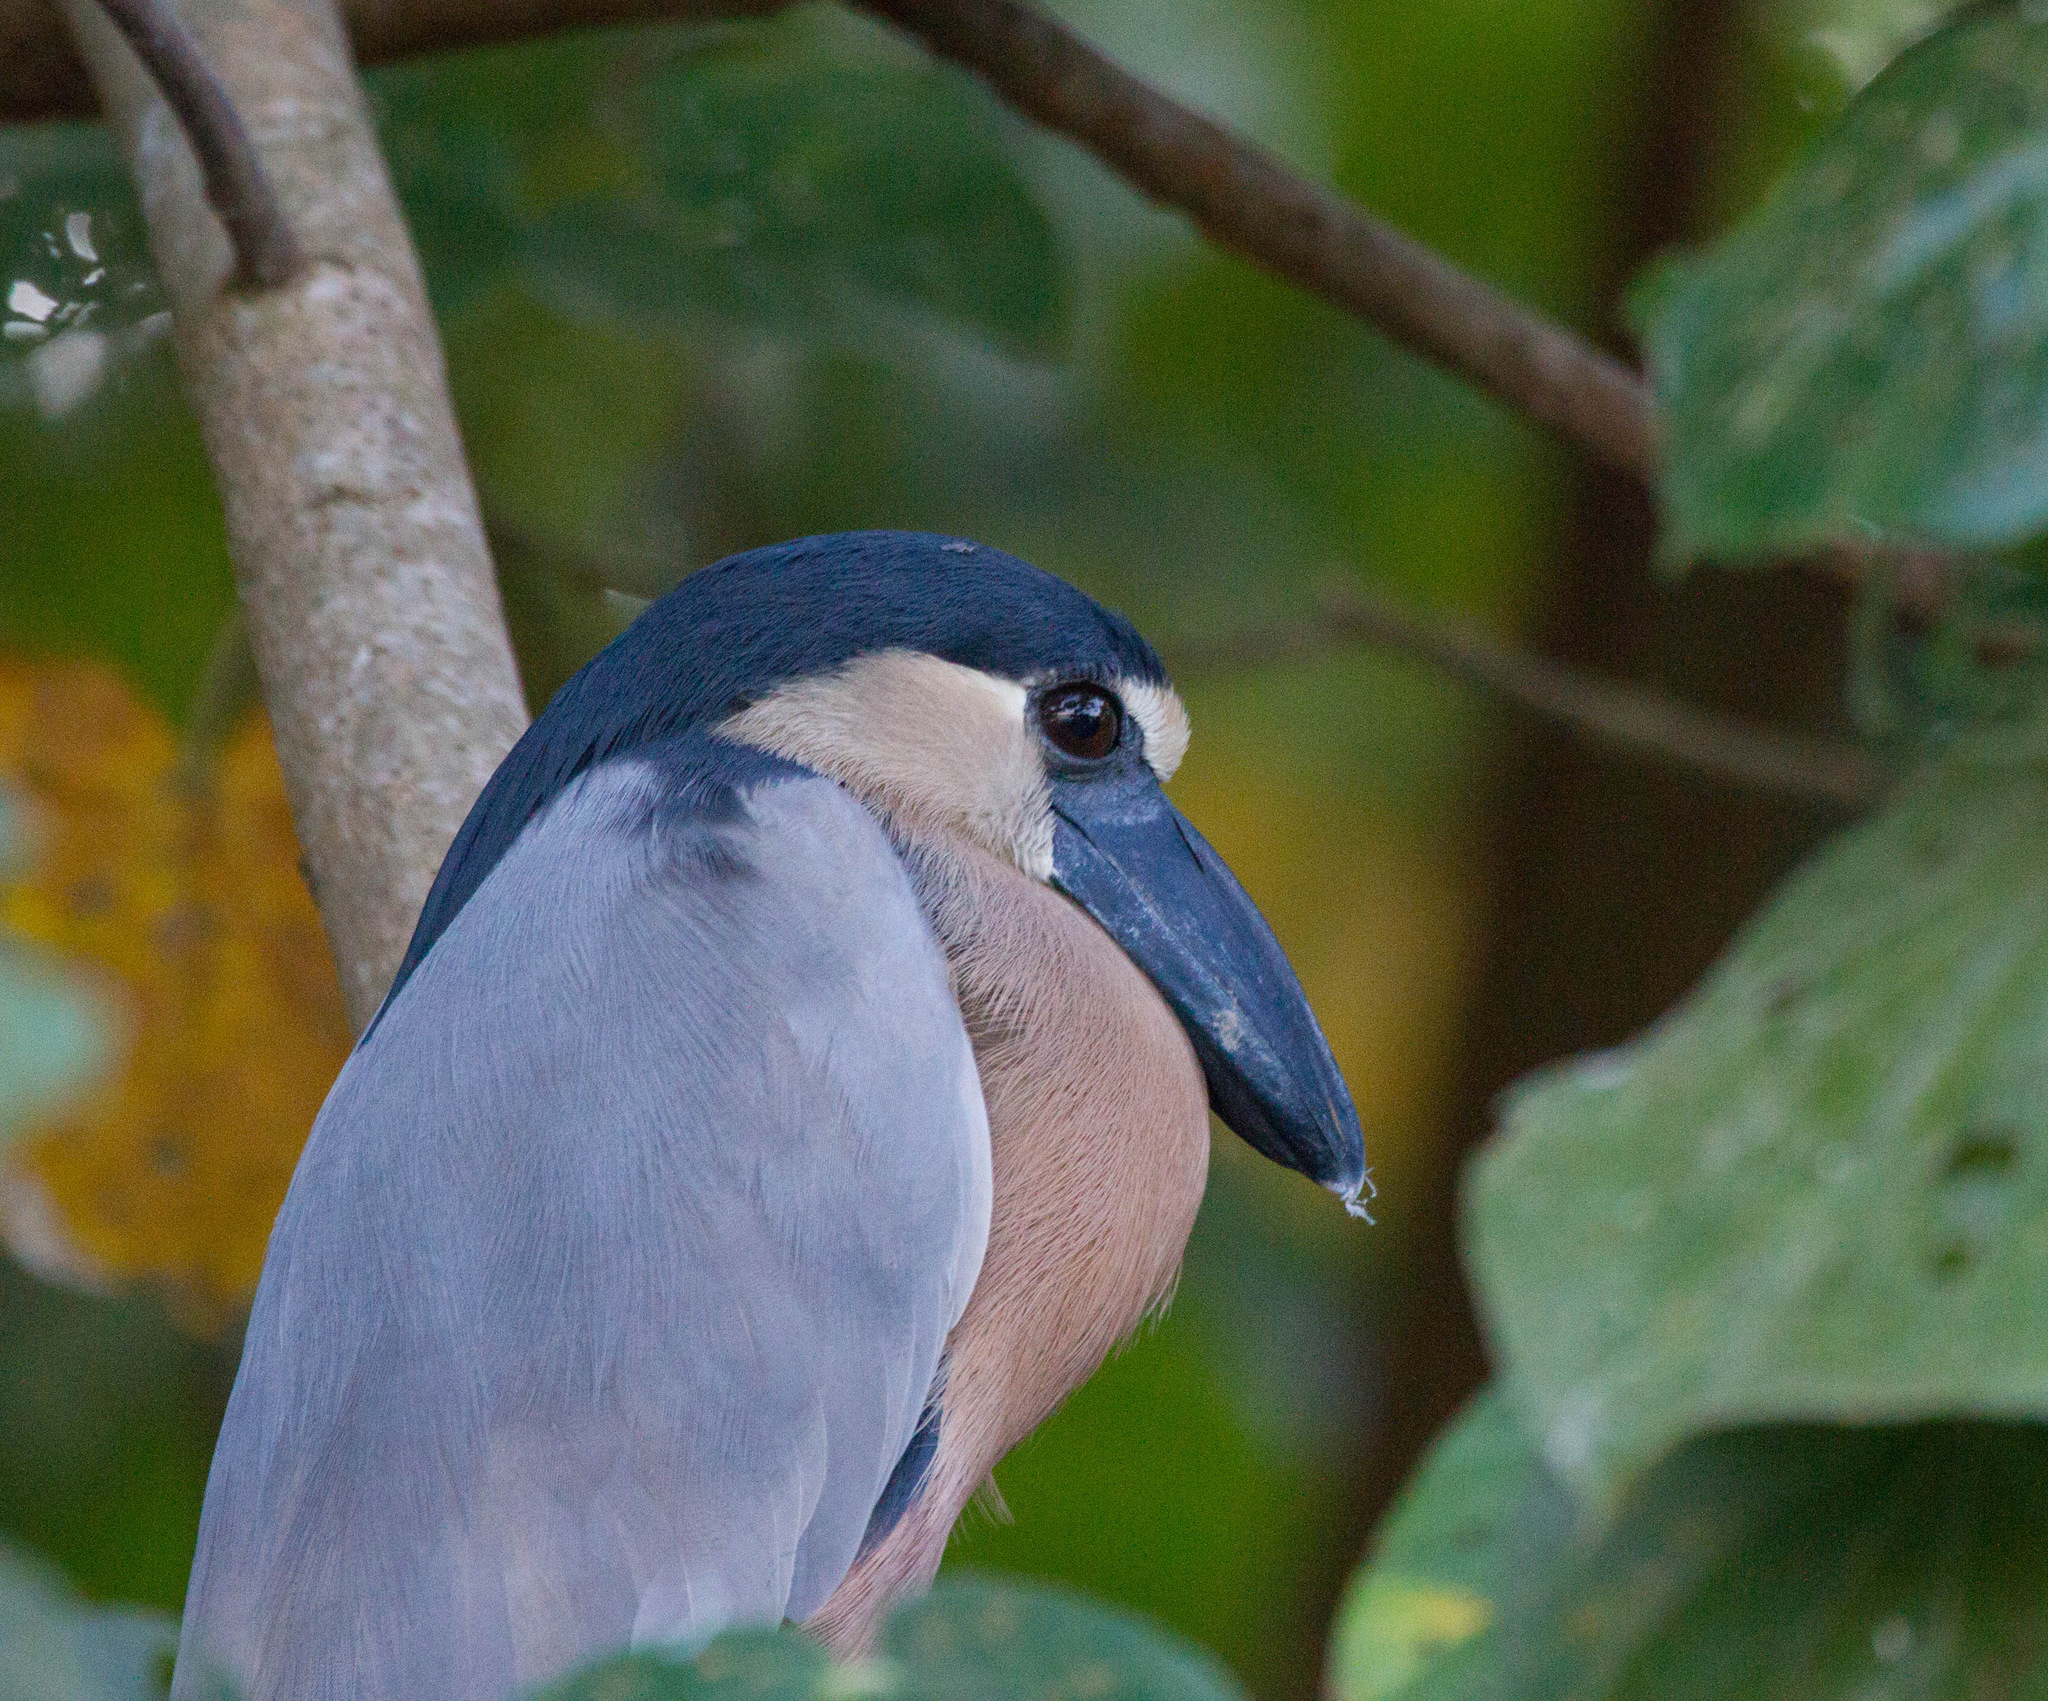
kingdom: Animalia
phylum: Chordata
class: Aves
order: Pelecaniformes
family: Ardeidae
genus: Cochlearius
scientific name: Cochlearius cochlearius
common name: Boat-billed heron
